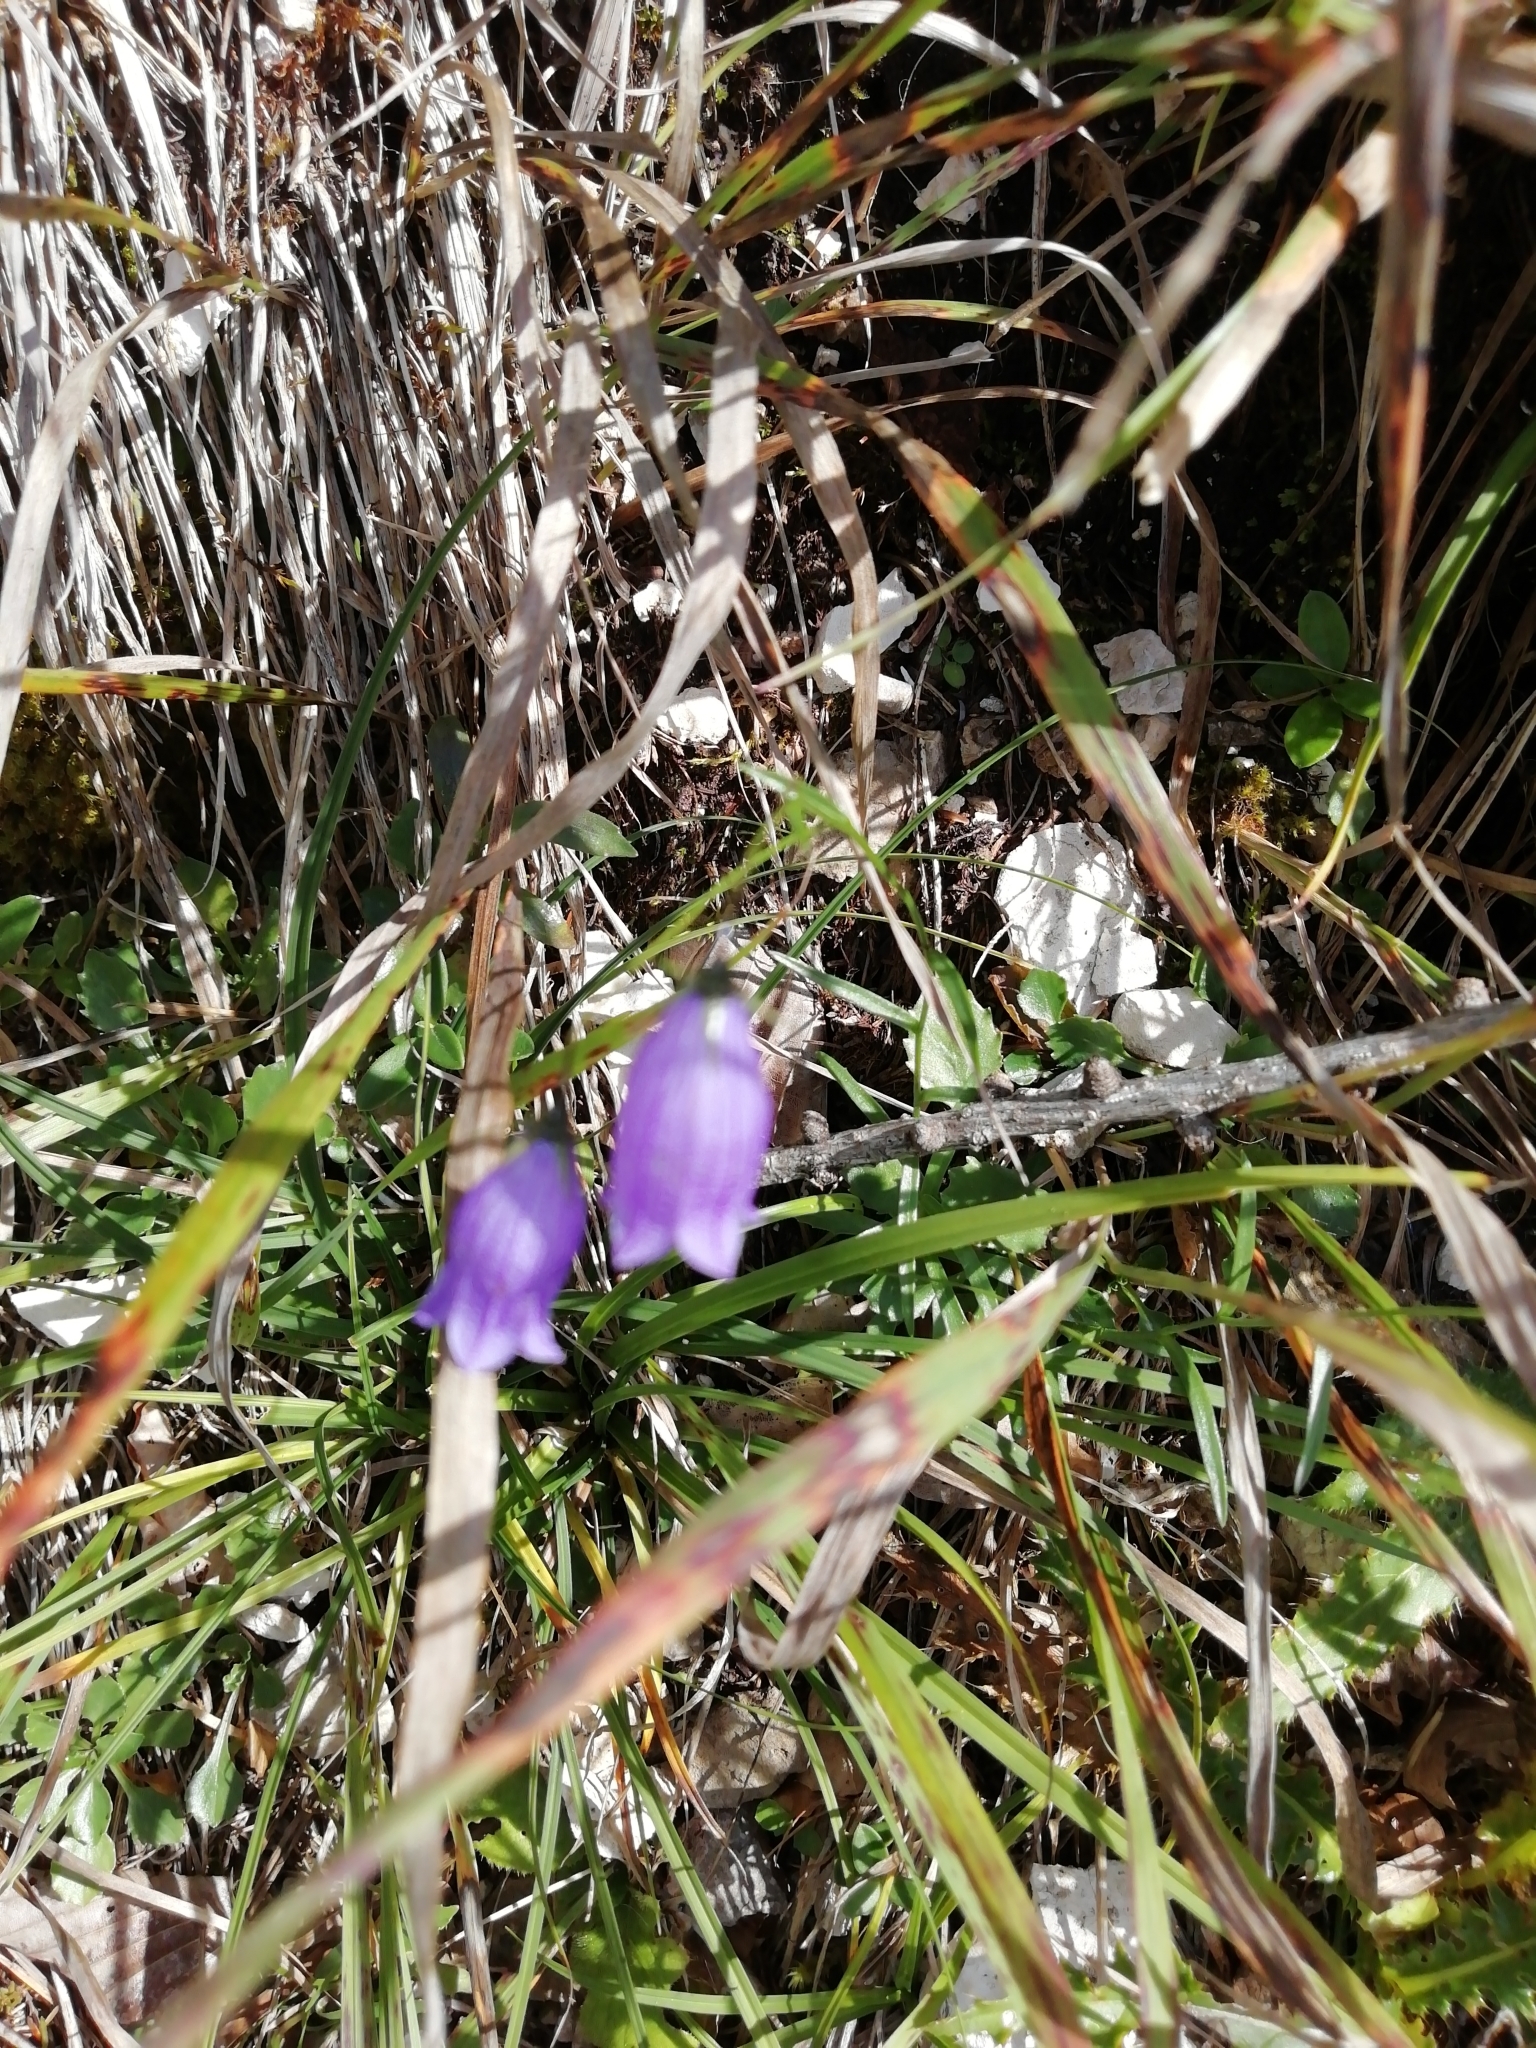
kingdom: Plantae
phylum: Tracheophyta
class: Magnoliopsida
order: Asterales
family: Campanulaceae
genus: Campanula
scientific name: Campanula cespitosa
